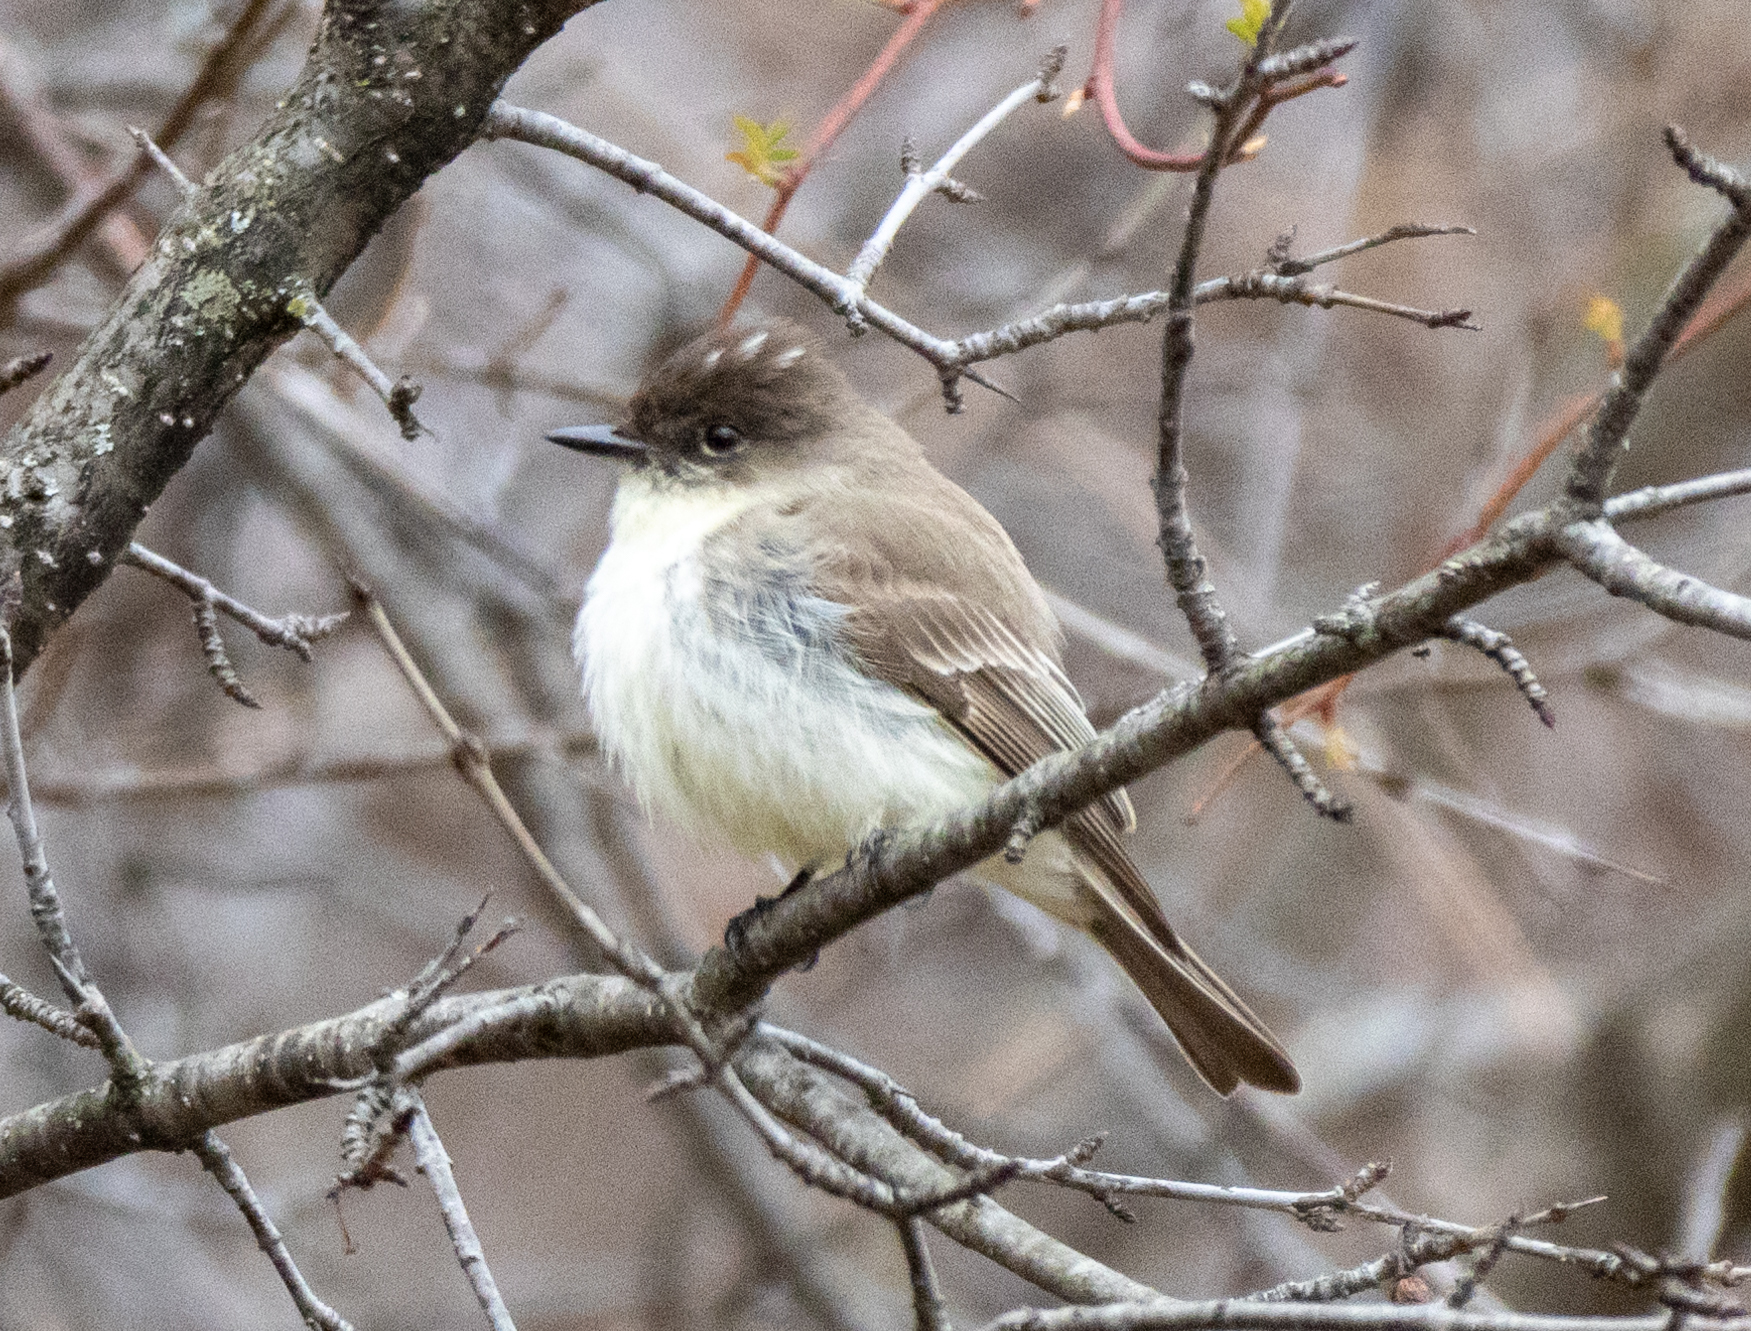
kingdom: Animalia
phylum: Chordata
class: Aves
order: Passeriformes
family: Tyrannidae
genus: Sayornis
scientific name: Sayornis phoebe
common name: Eastern phoebe
